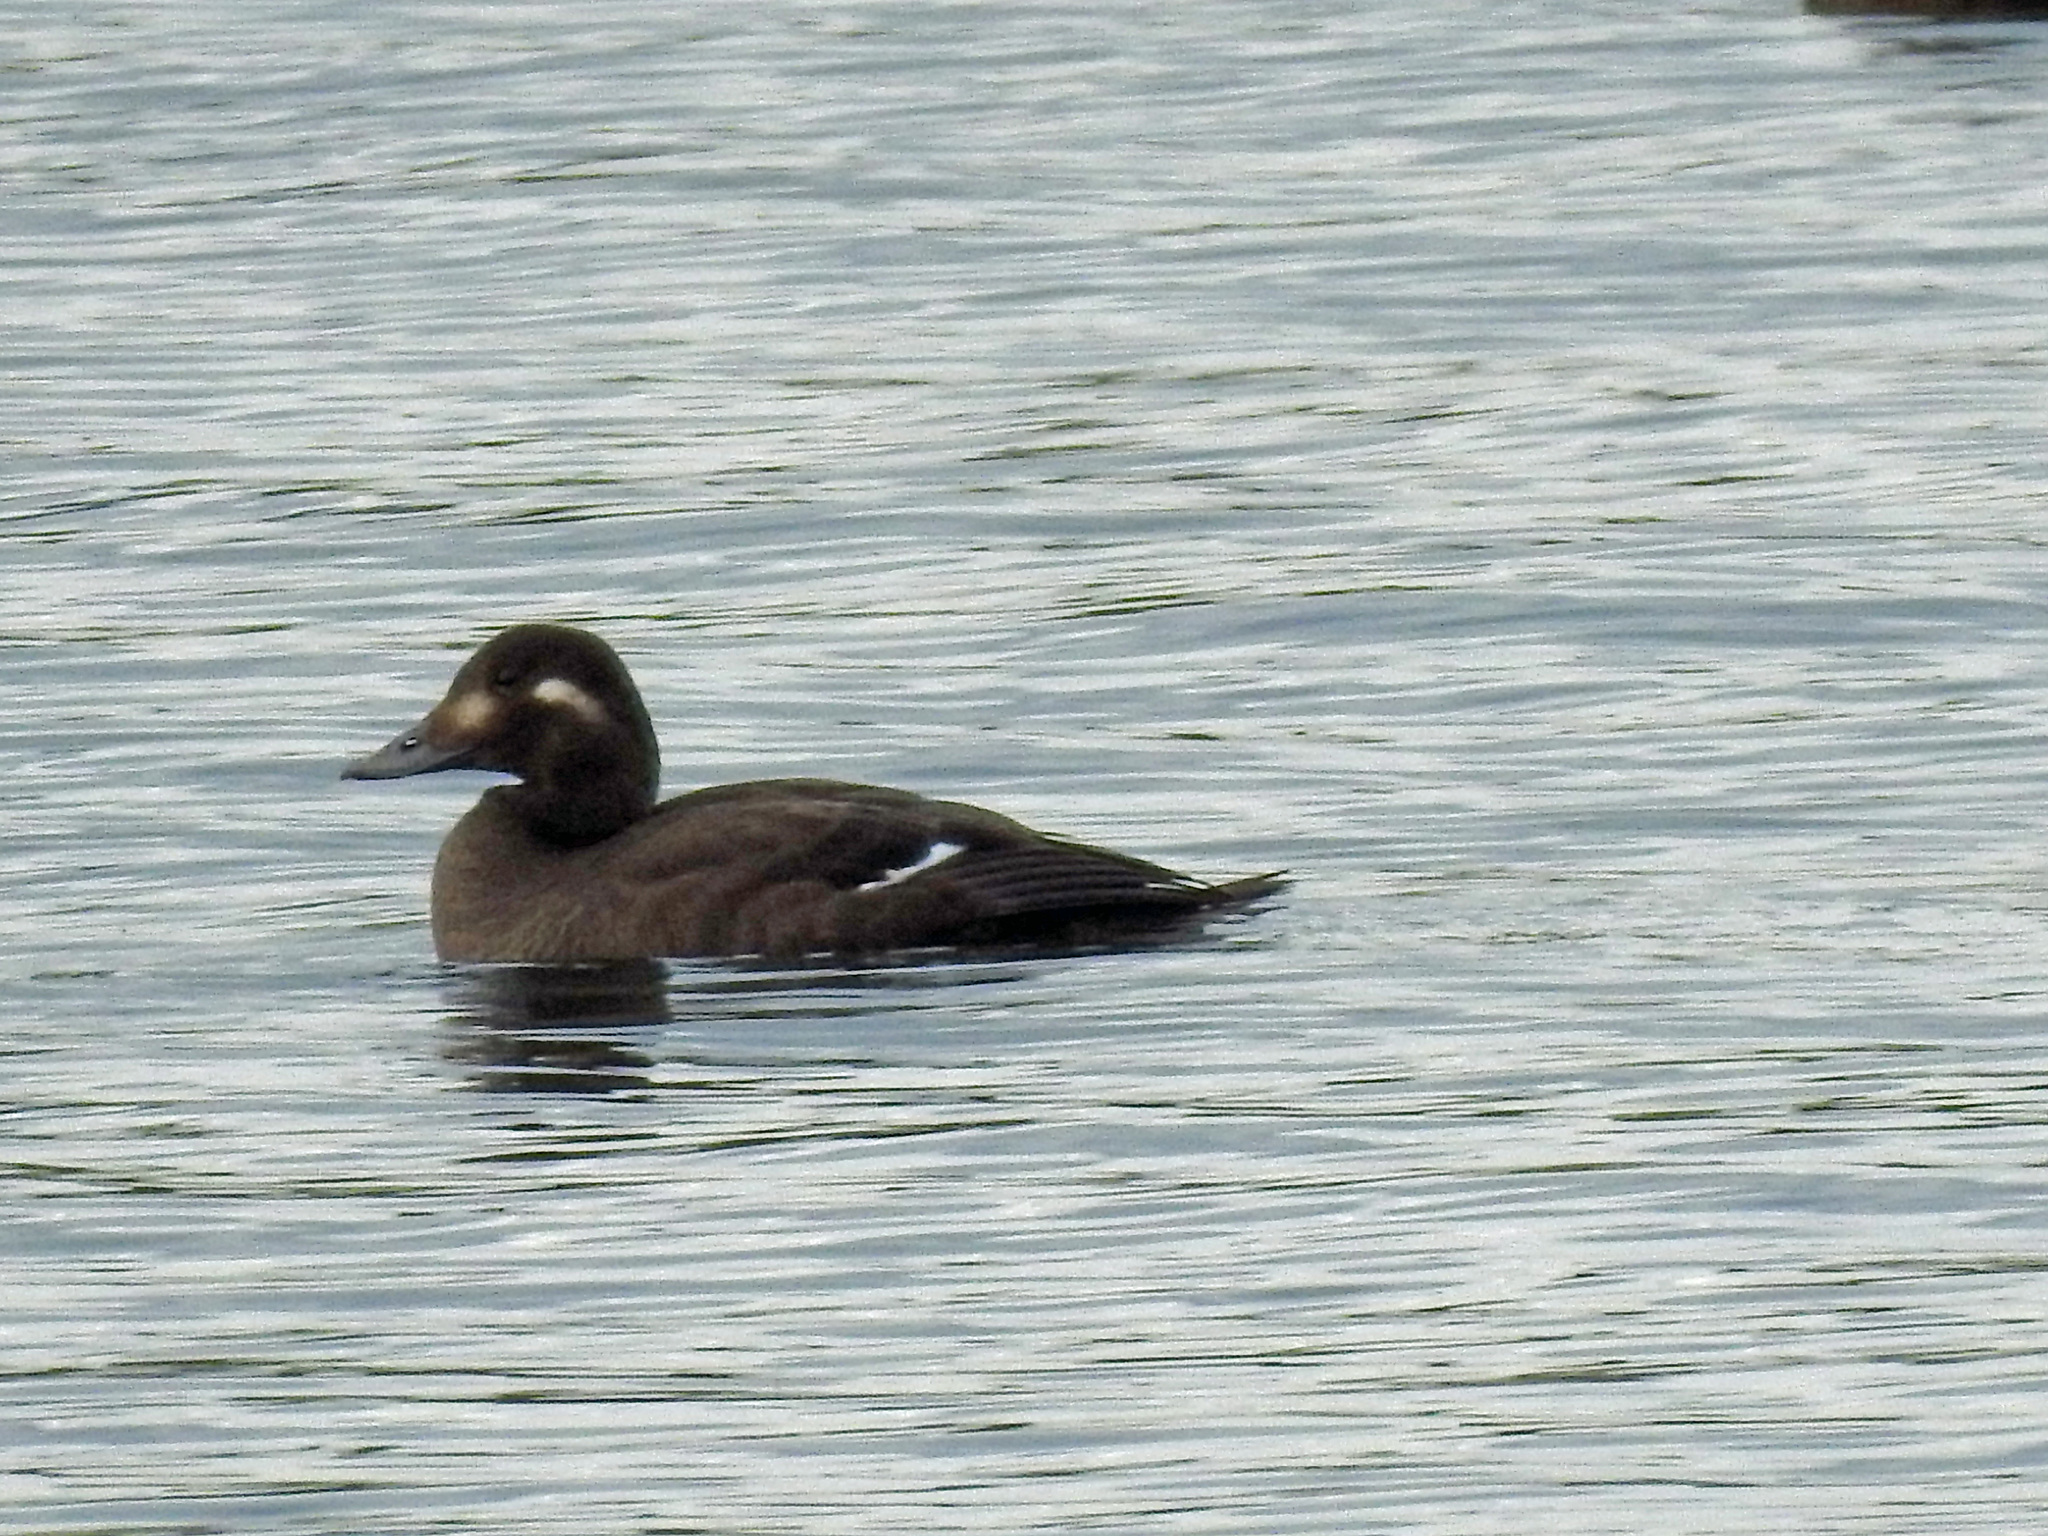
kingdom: Animalia
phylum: Chordata
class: Aves
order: Anseriformes
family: Anatidae
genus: Melanitta
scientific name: Melanitta deglandi
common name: White-winged scoter
